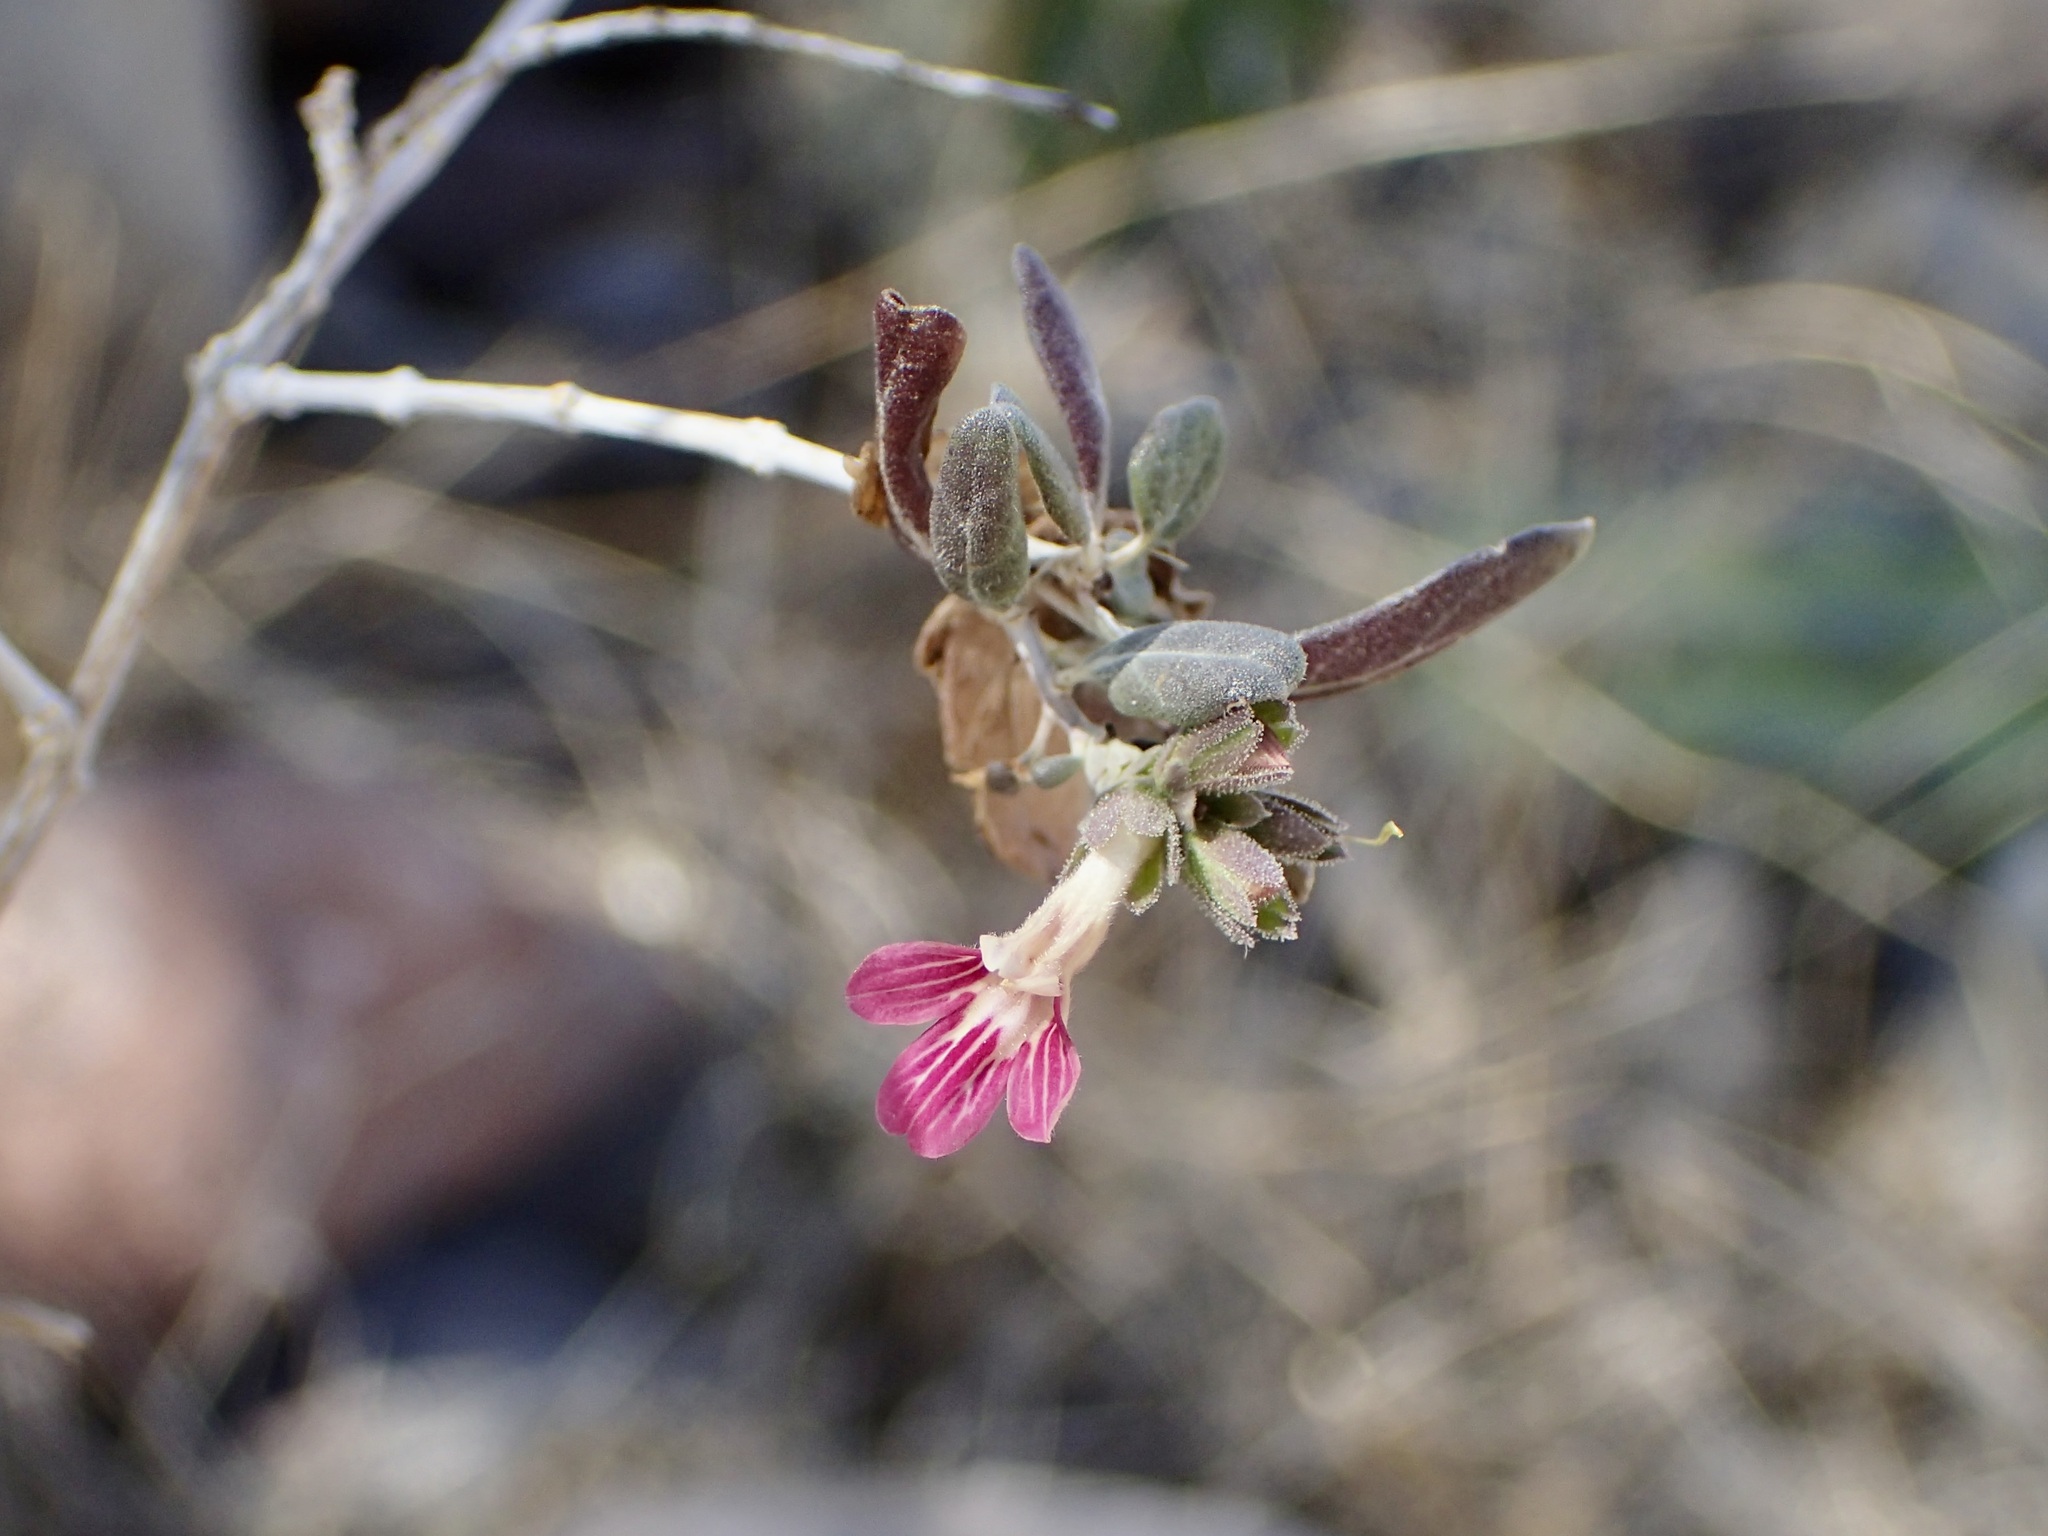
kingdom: Plantae
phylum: Tracheophyta
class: Magnoliopsida
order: Lamiales
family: Acanthaceae
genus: Holographis
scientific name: Holographis virgata
